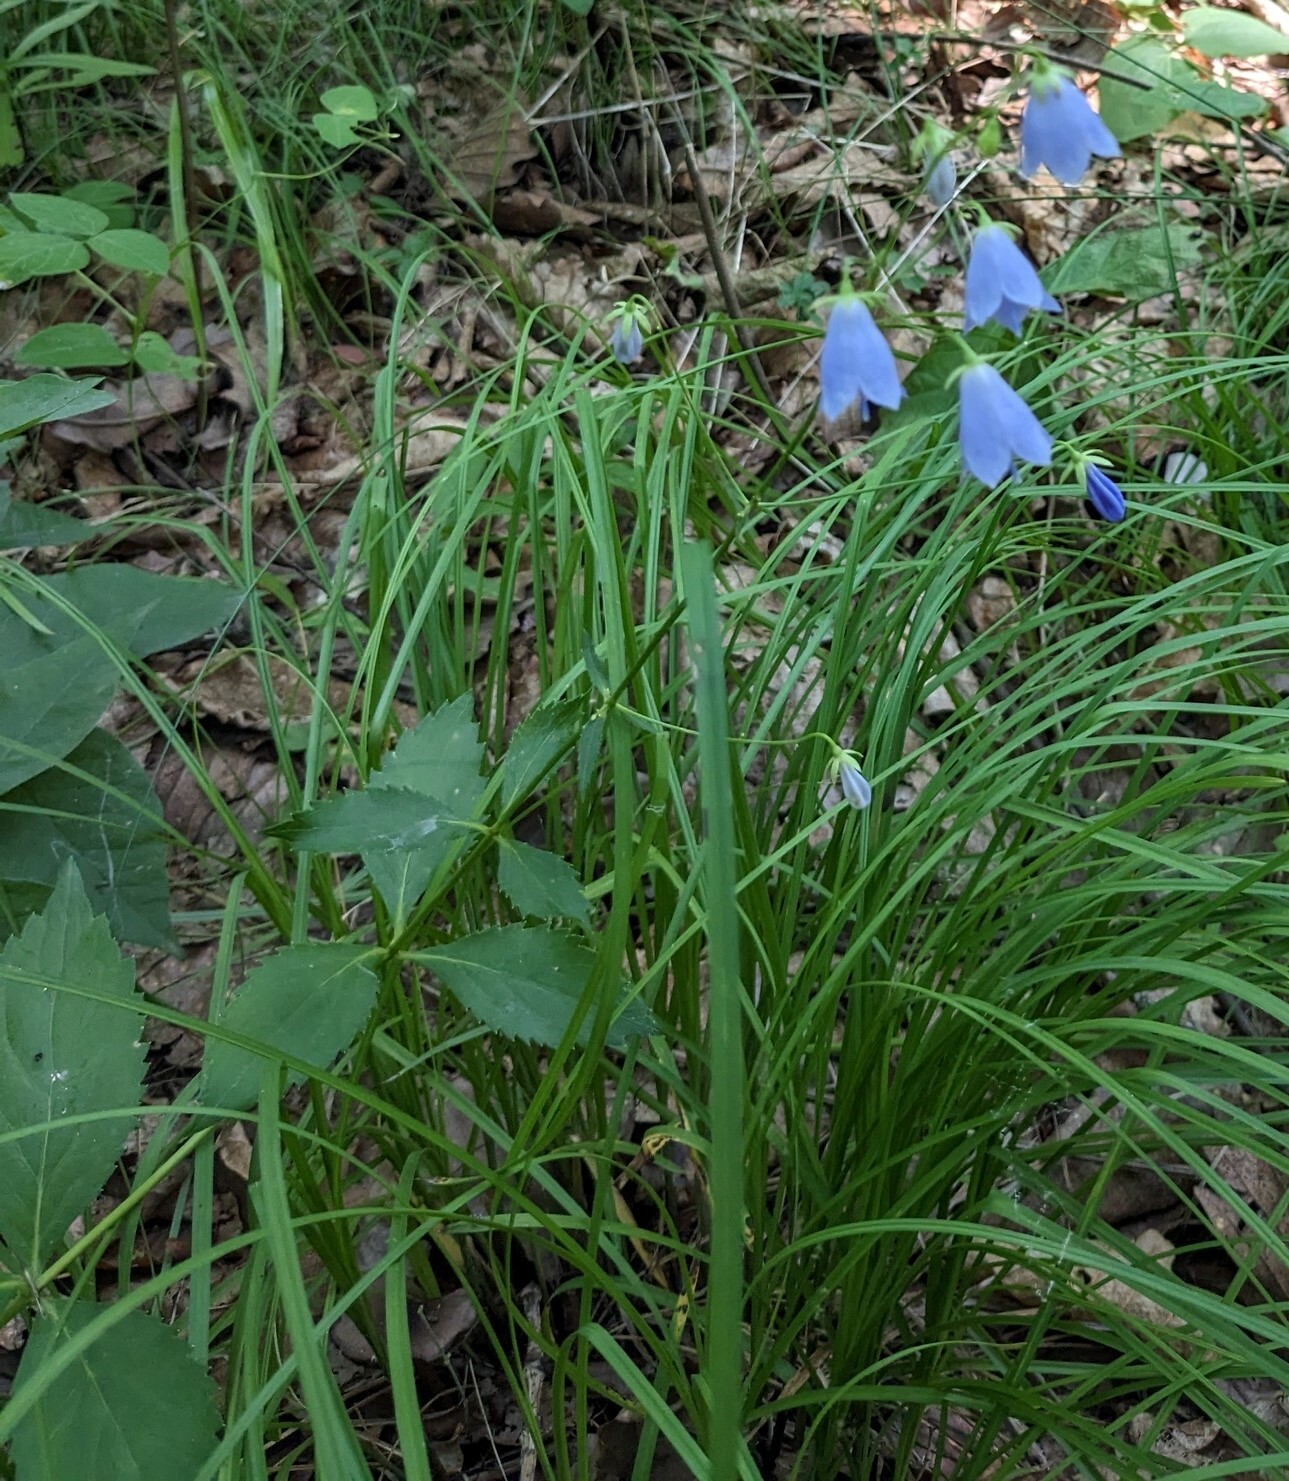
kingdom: Plantae
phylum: Tracheophyta
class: Magnoliopsida
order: Asterales
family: Campanulaceae
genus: Adenophora
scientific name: Adenophora divaricata
